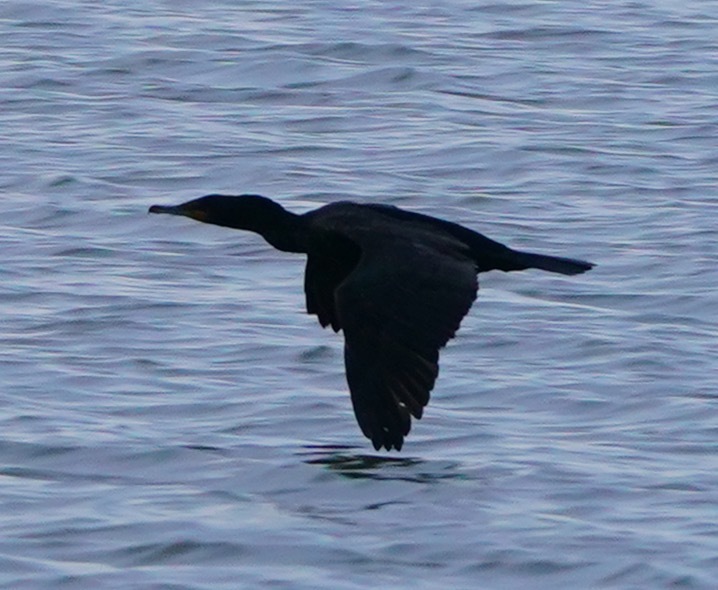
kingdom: Animalia
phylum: Chordata
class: Aves
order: Suliformes
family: Phalacrocoracidae
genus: Phalacrocorax
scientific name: Phalacrocorax auritus
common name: Double-crested cormorant
